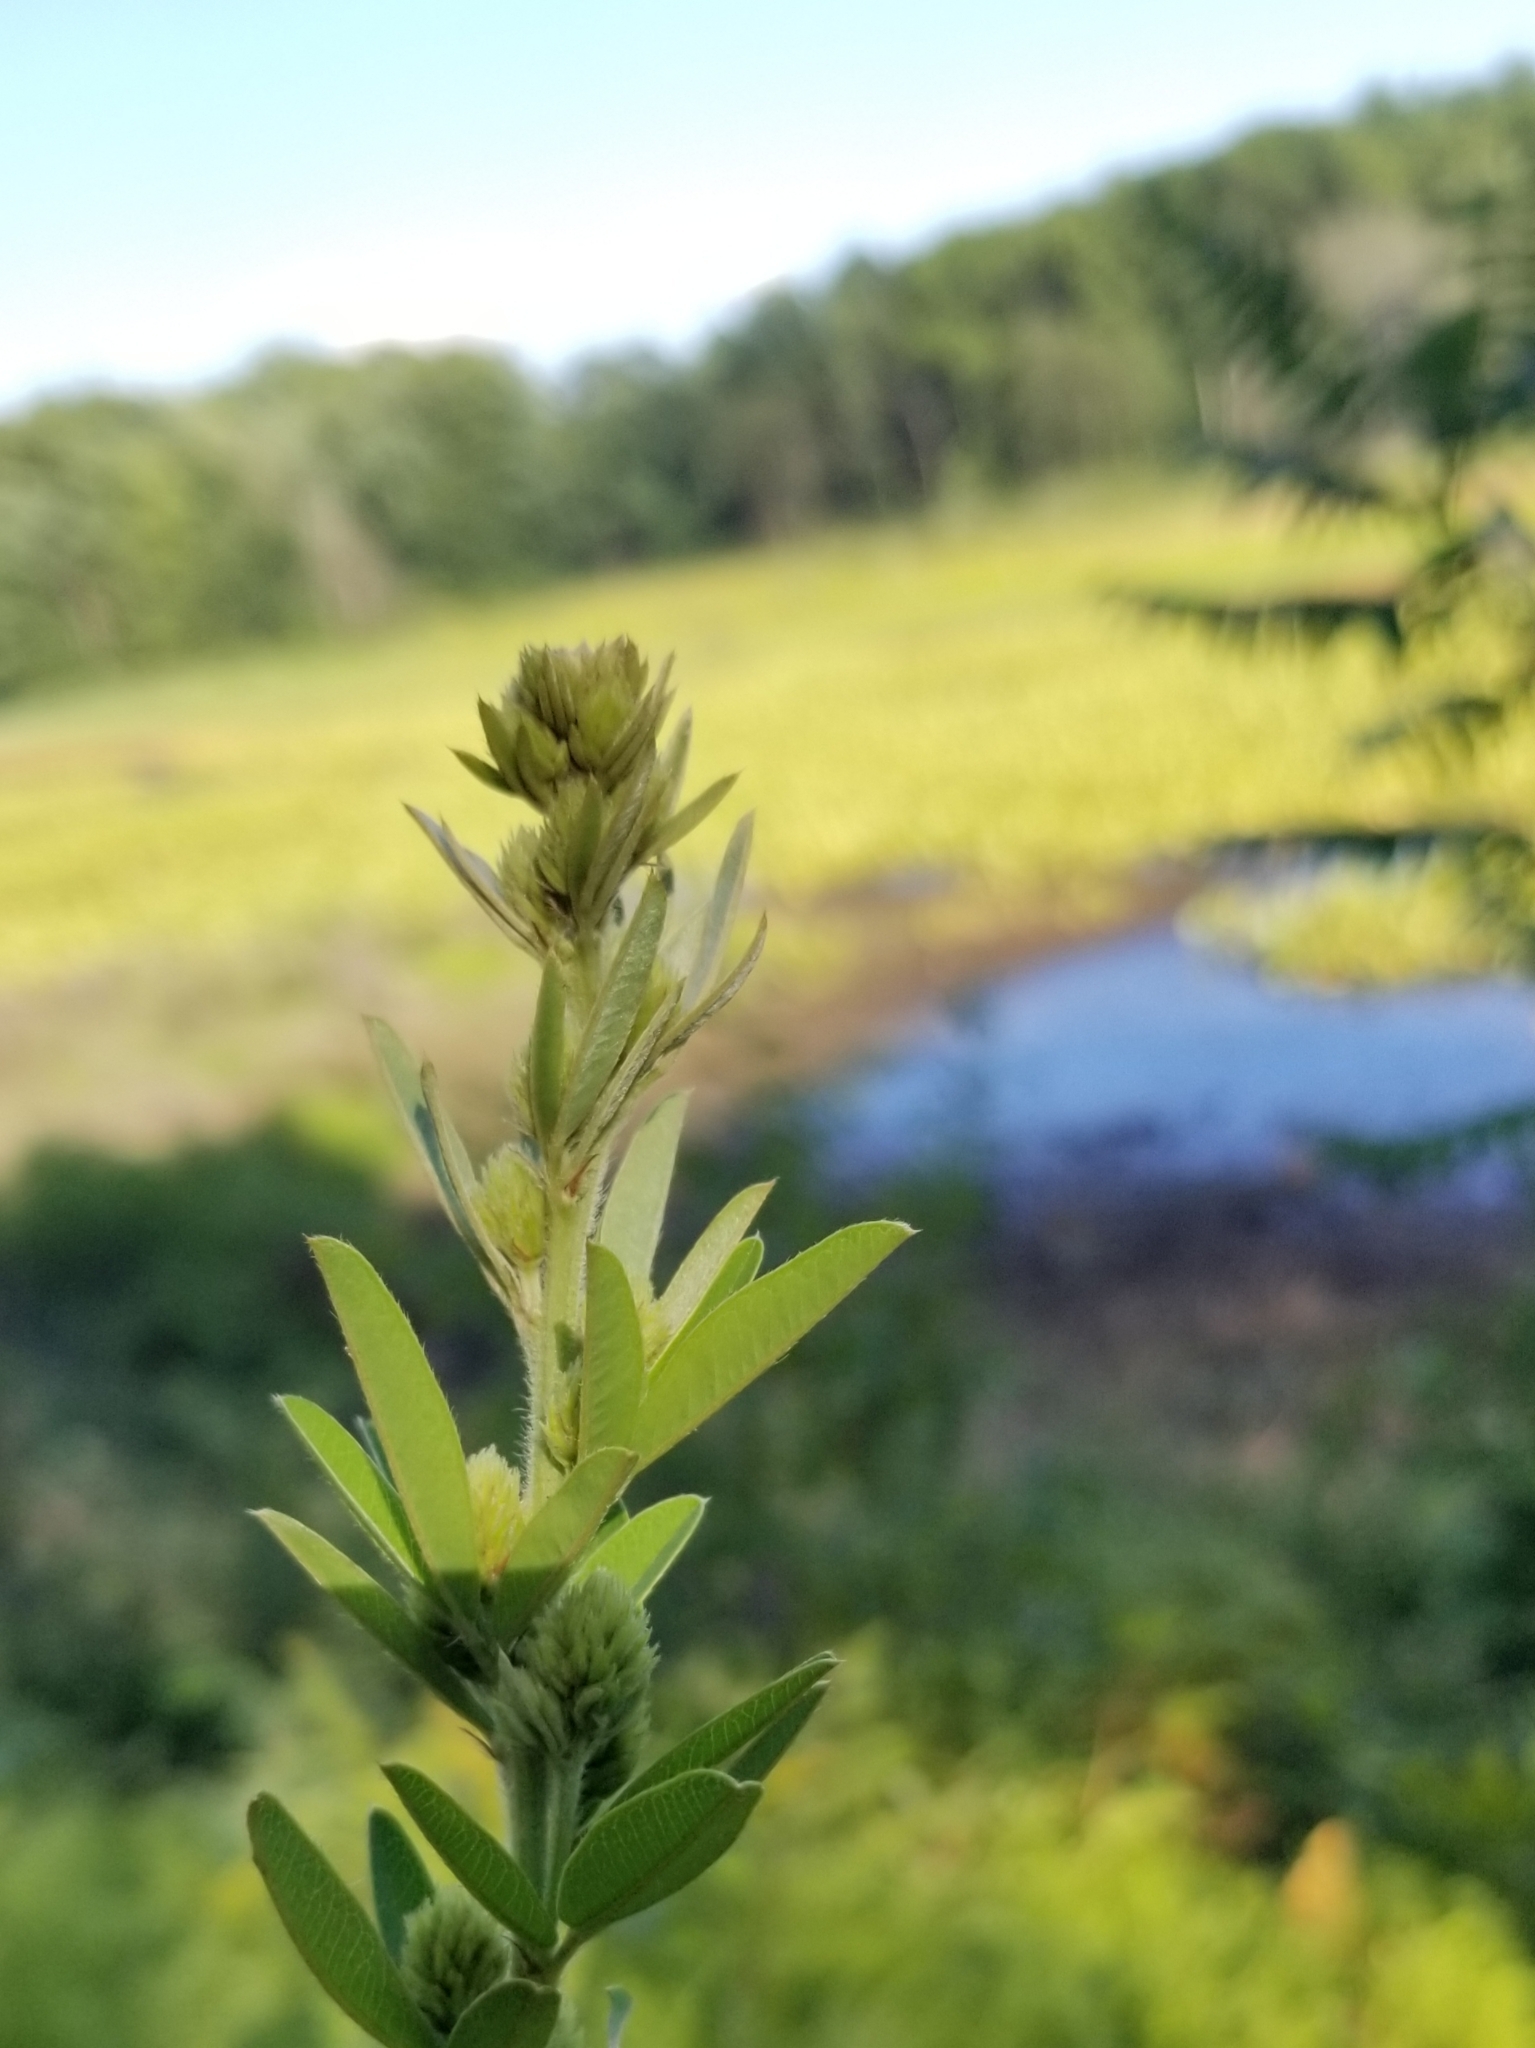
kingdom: Plantae
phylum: Tracheophyta
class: Magnoliopsida
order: Fabales
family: Fabaceae
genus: Lespedeza
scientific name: Lespedeza capitata
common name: Dusty clover
